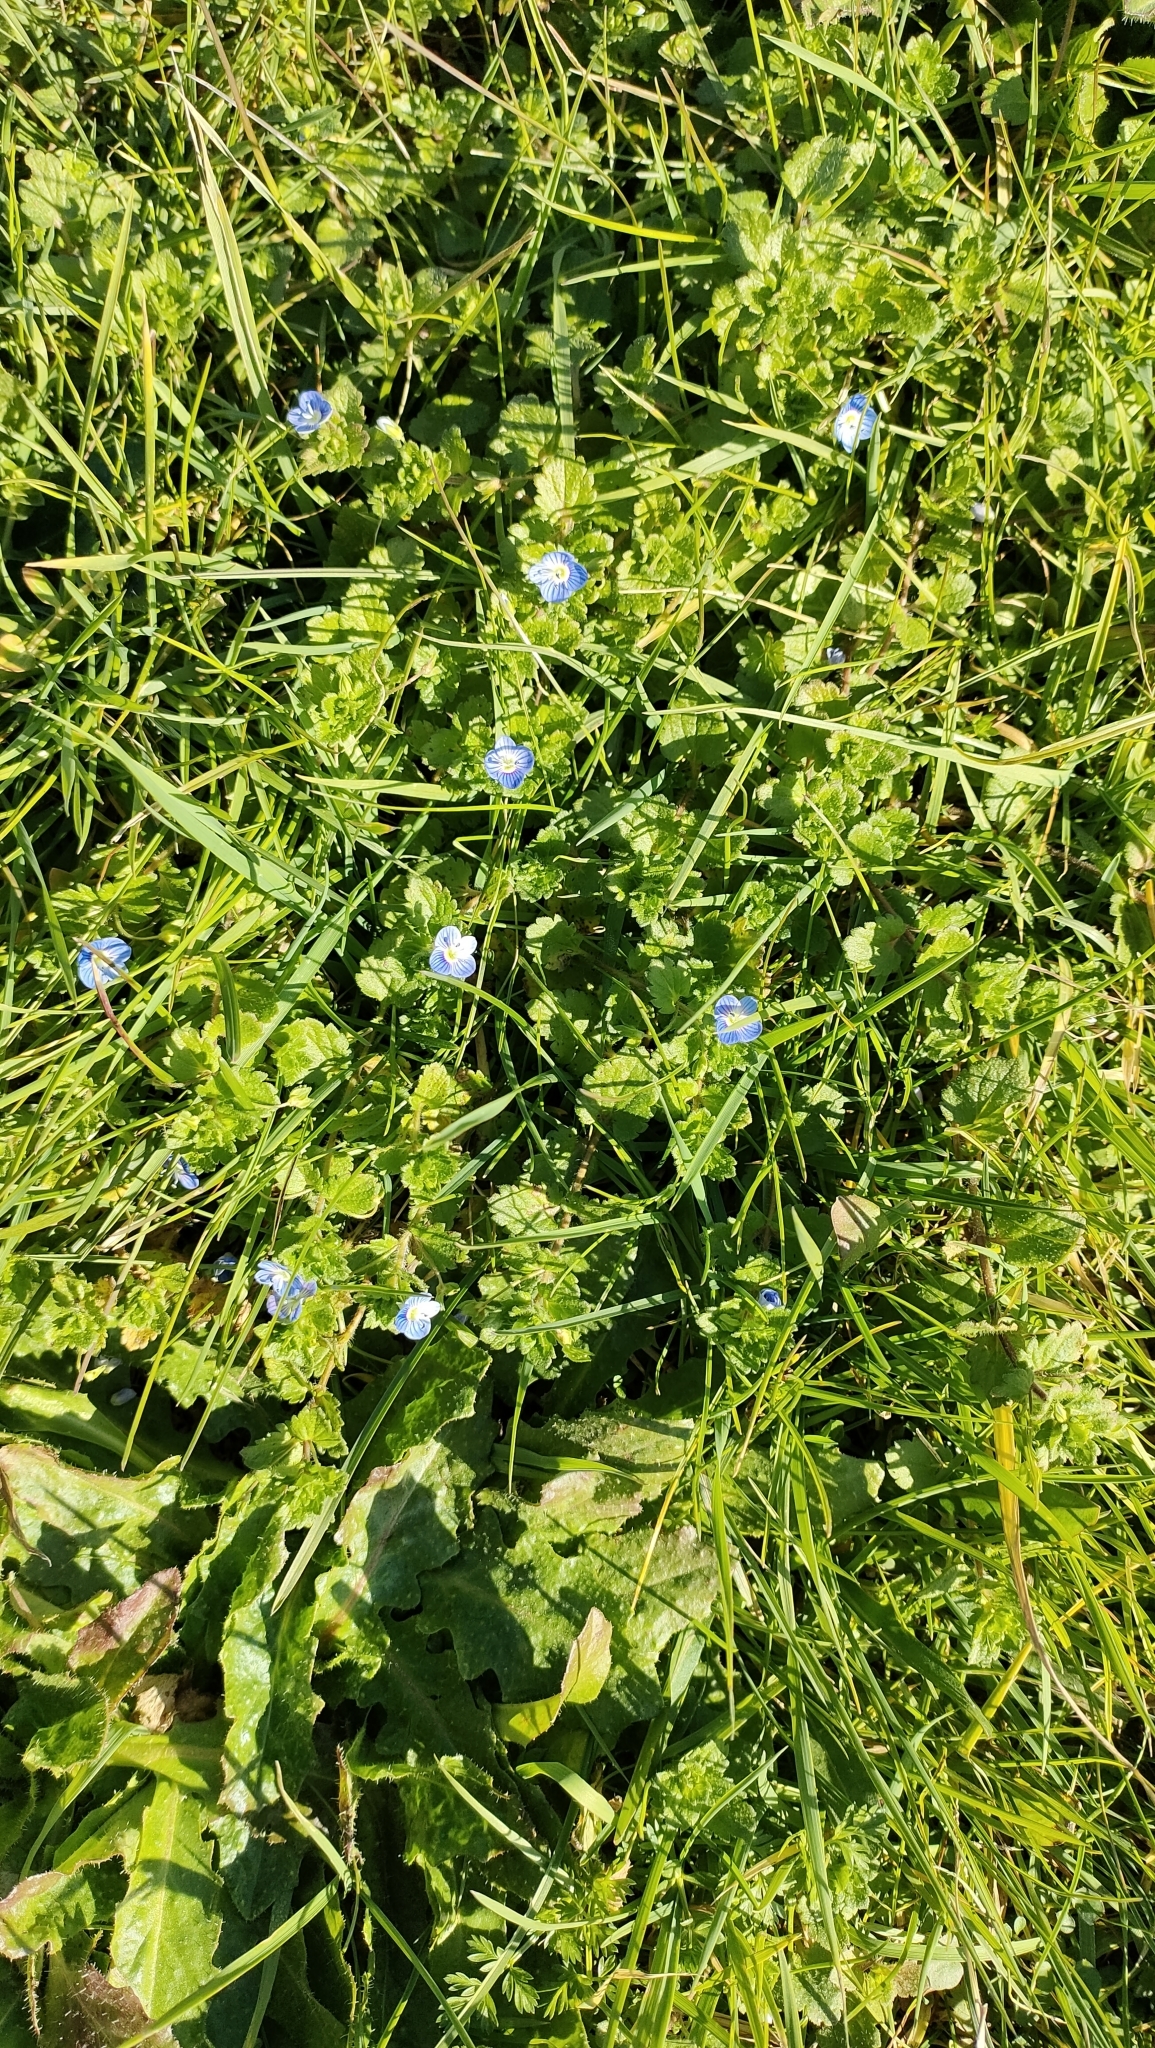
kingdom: Plantae
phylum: Tracheophyta
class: Magnoliopsida
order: Lamiales
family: Plantaginaceae
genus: Veronica
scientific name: Veronica persica
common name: Common field-speedwell
